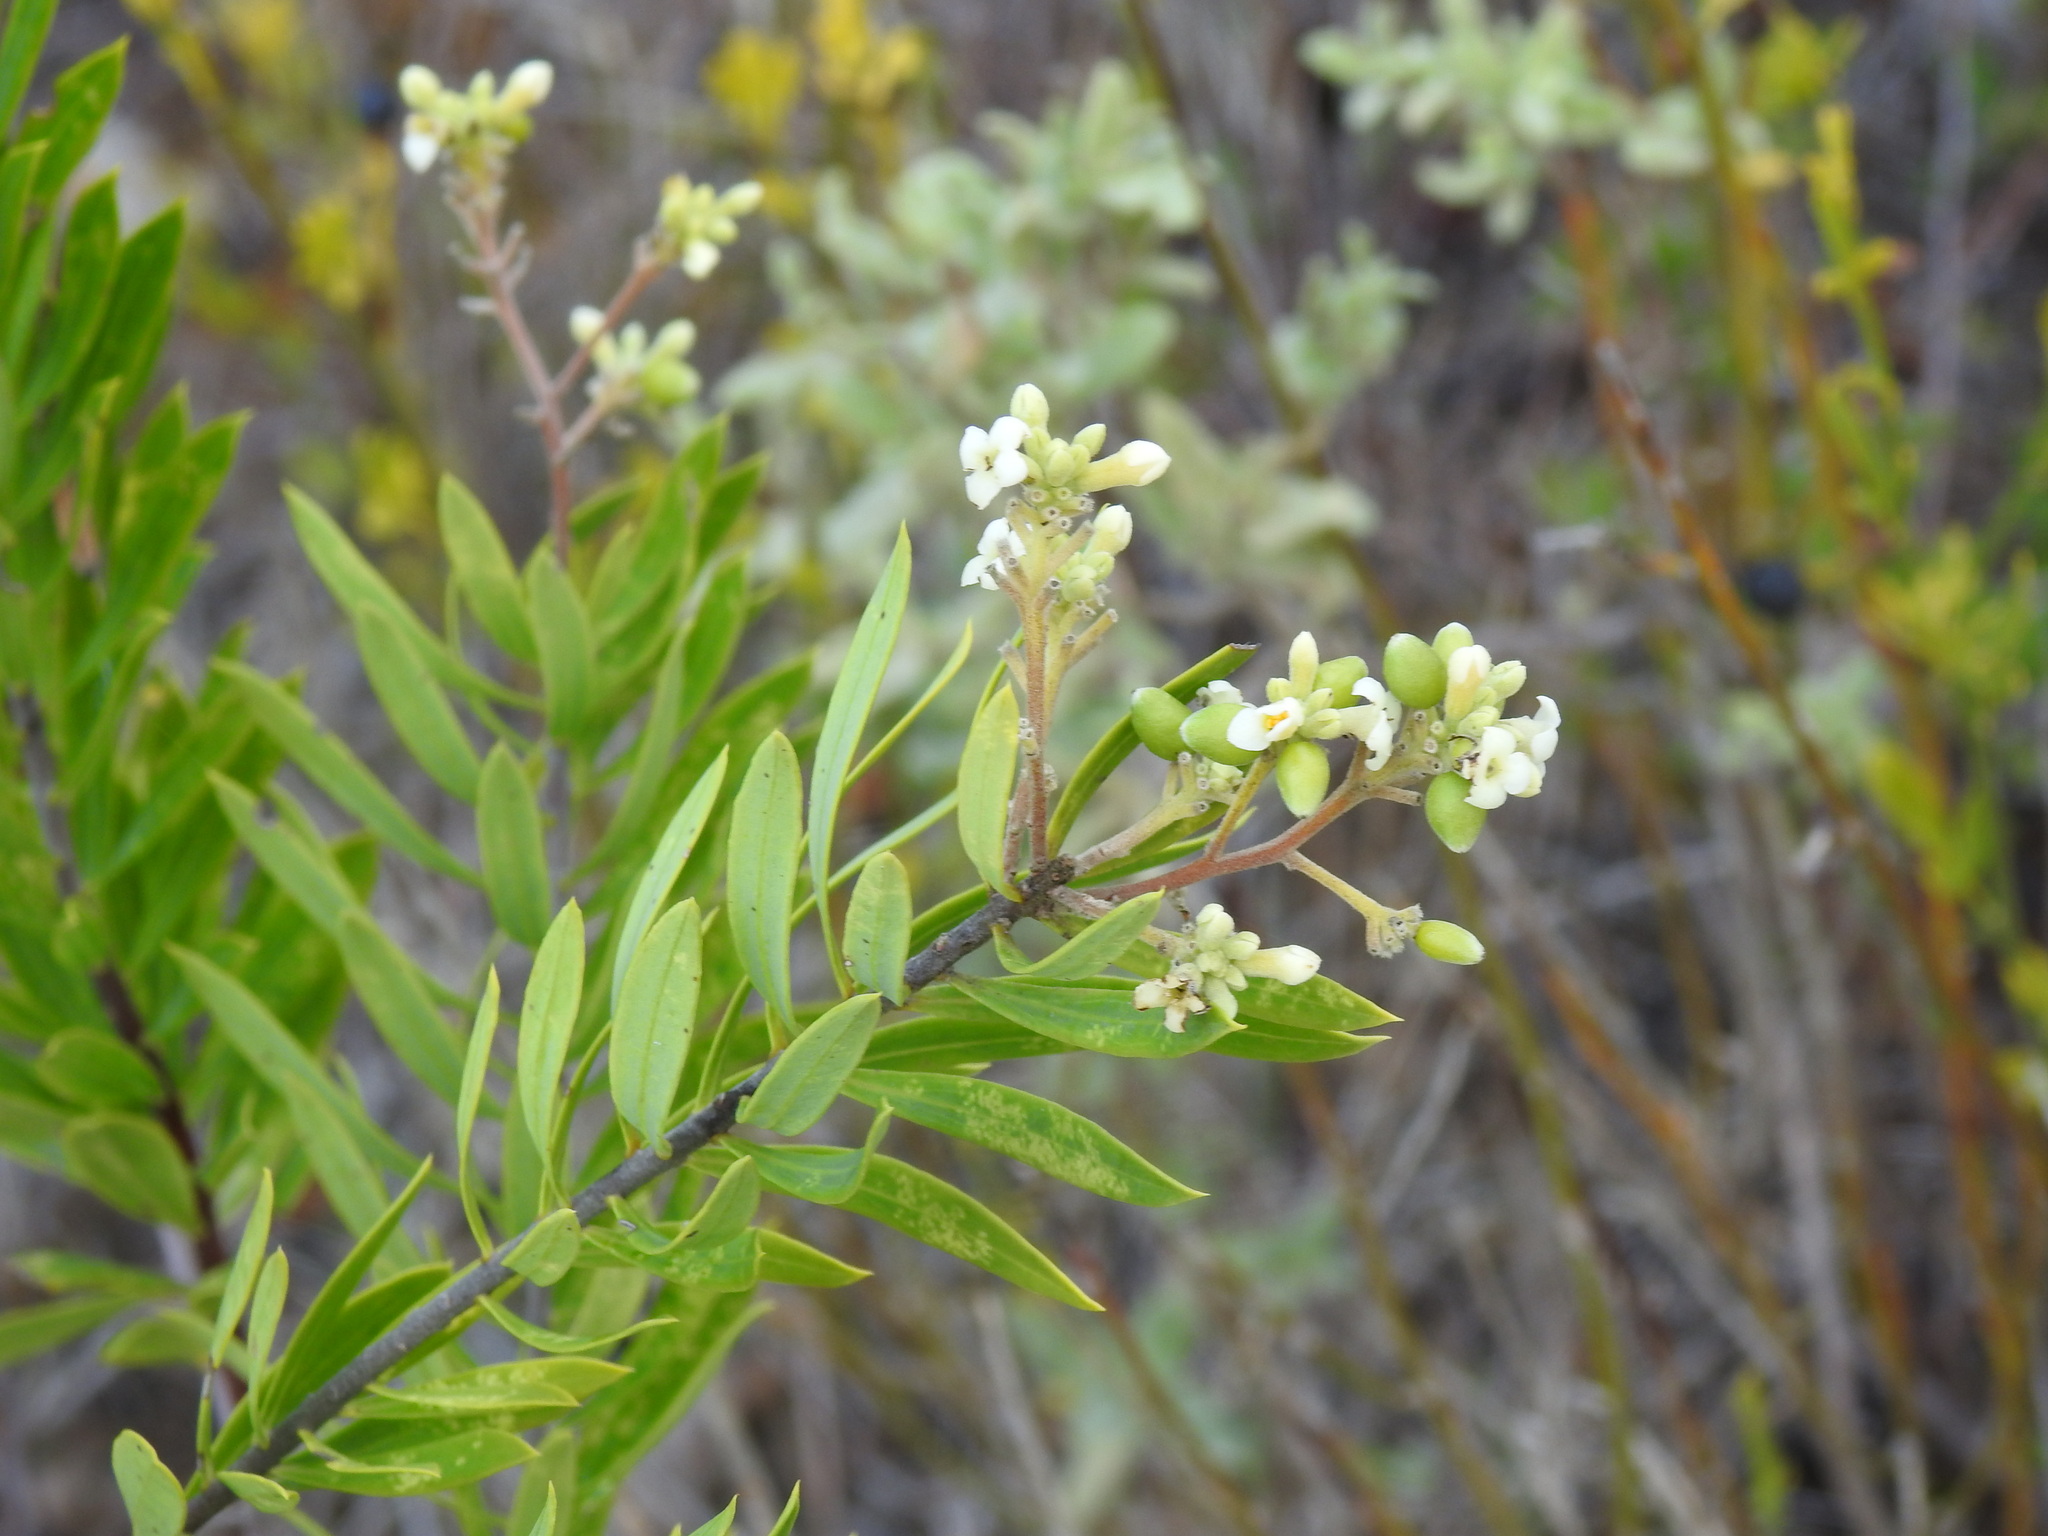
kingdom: Plantae
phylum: Tracheophyta
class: Magnoliopsida
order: Malvales
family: Thymelaeaceae
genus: Daphne
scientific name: Daphne gnidium
